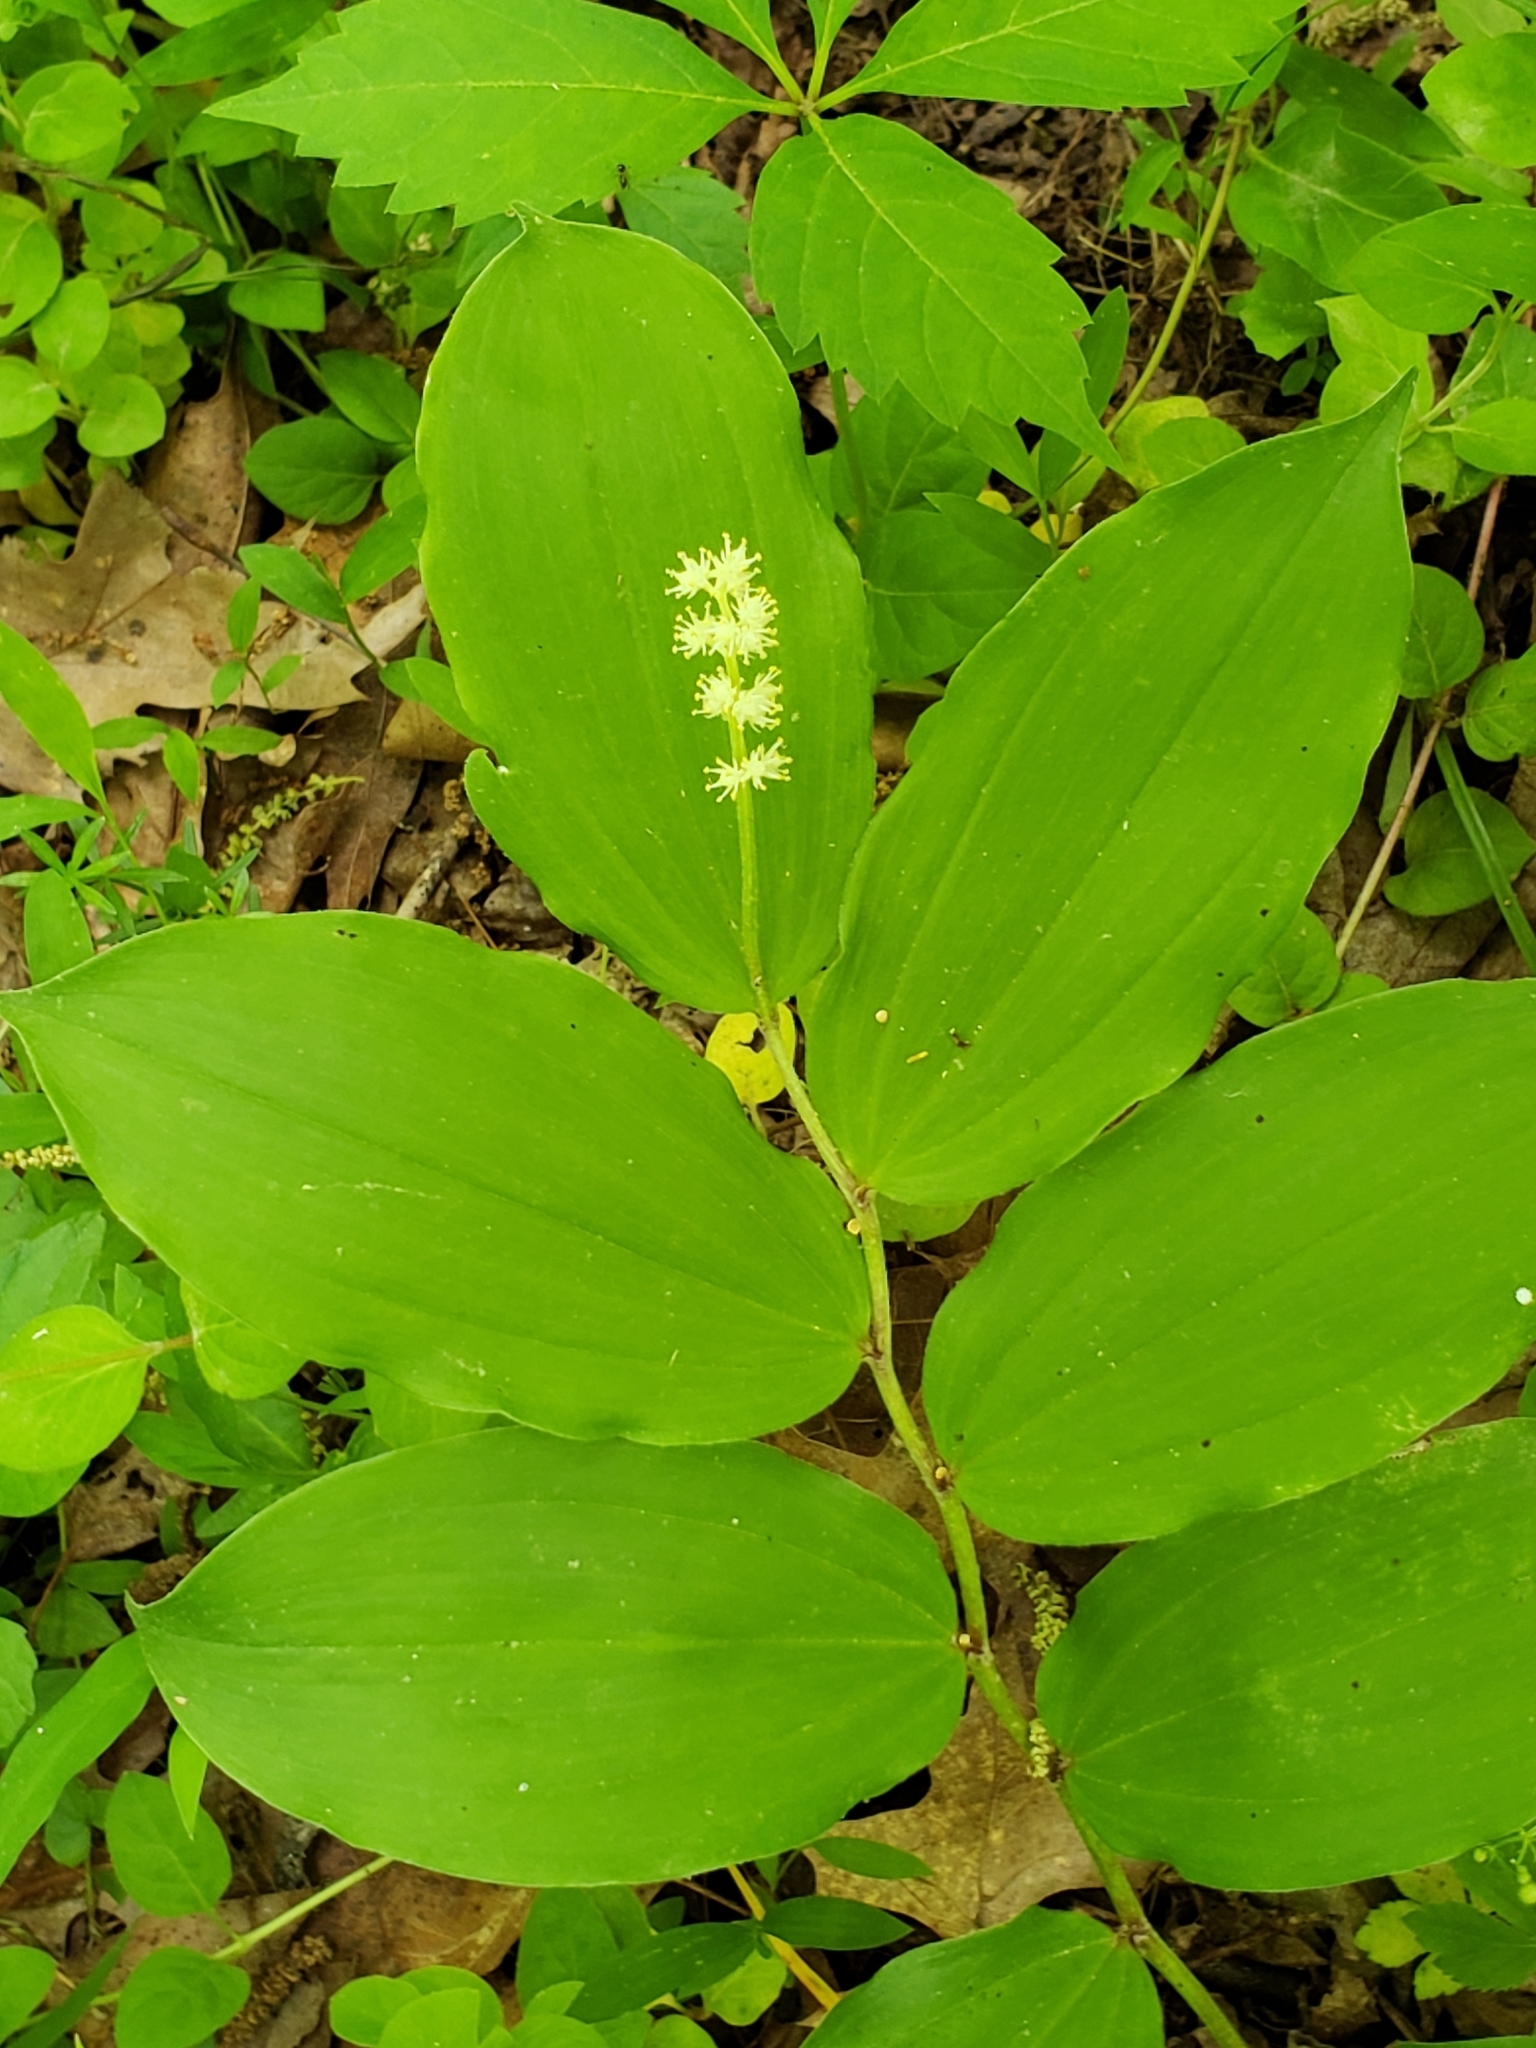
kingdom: Plantae
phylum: Tracheophyta
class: Liliopsida
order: Asparagales
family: Asparagaceae
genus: Maianthemum
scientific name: Maianthemum racemosum
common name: False spikenard
